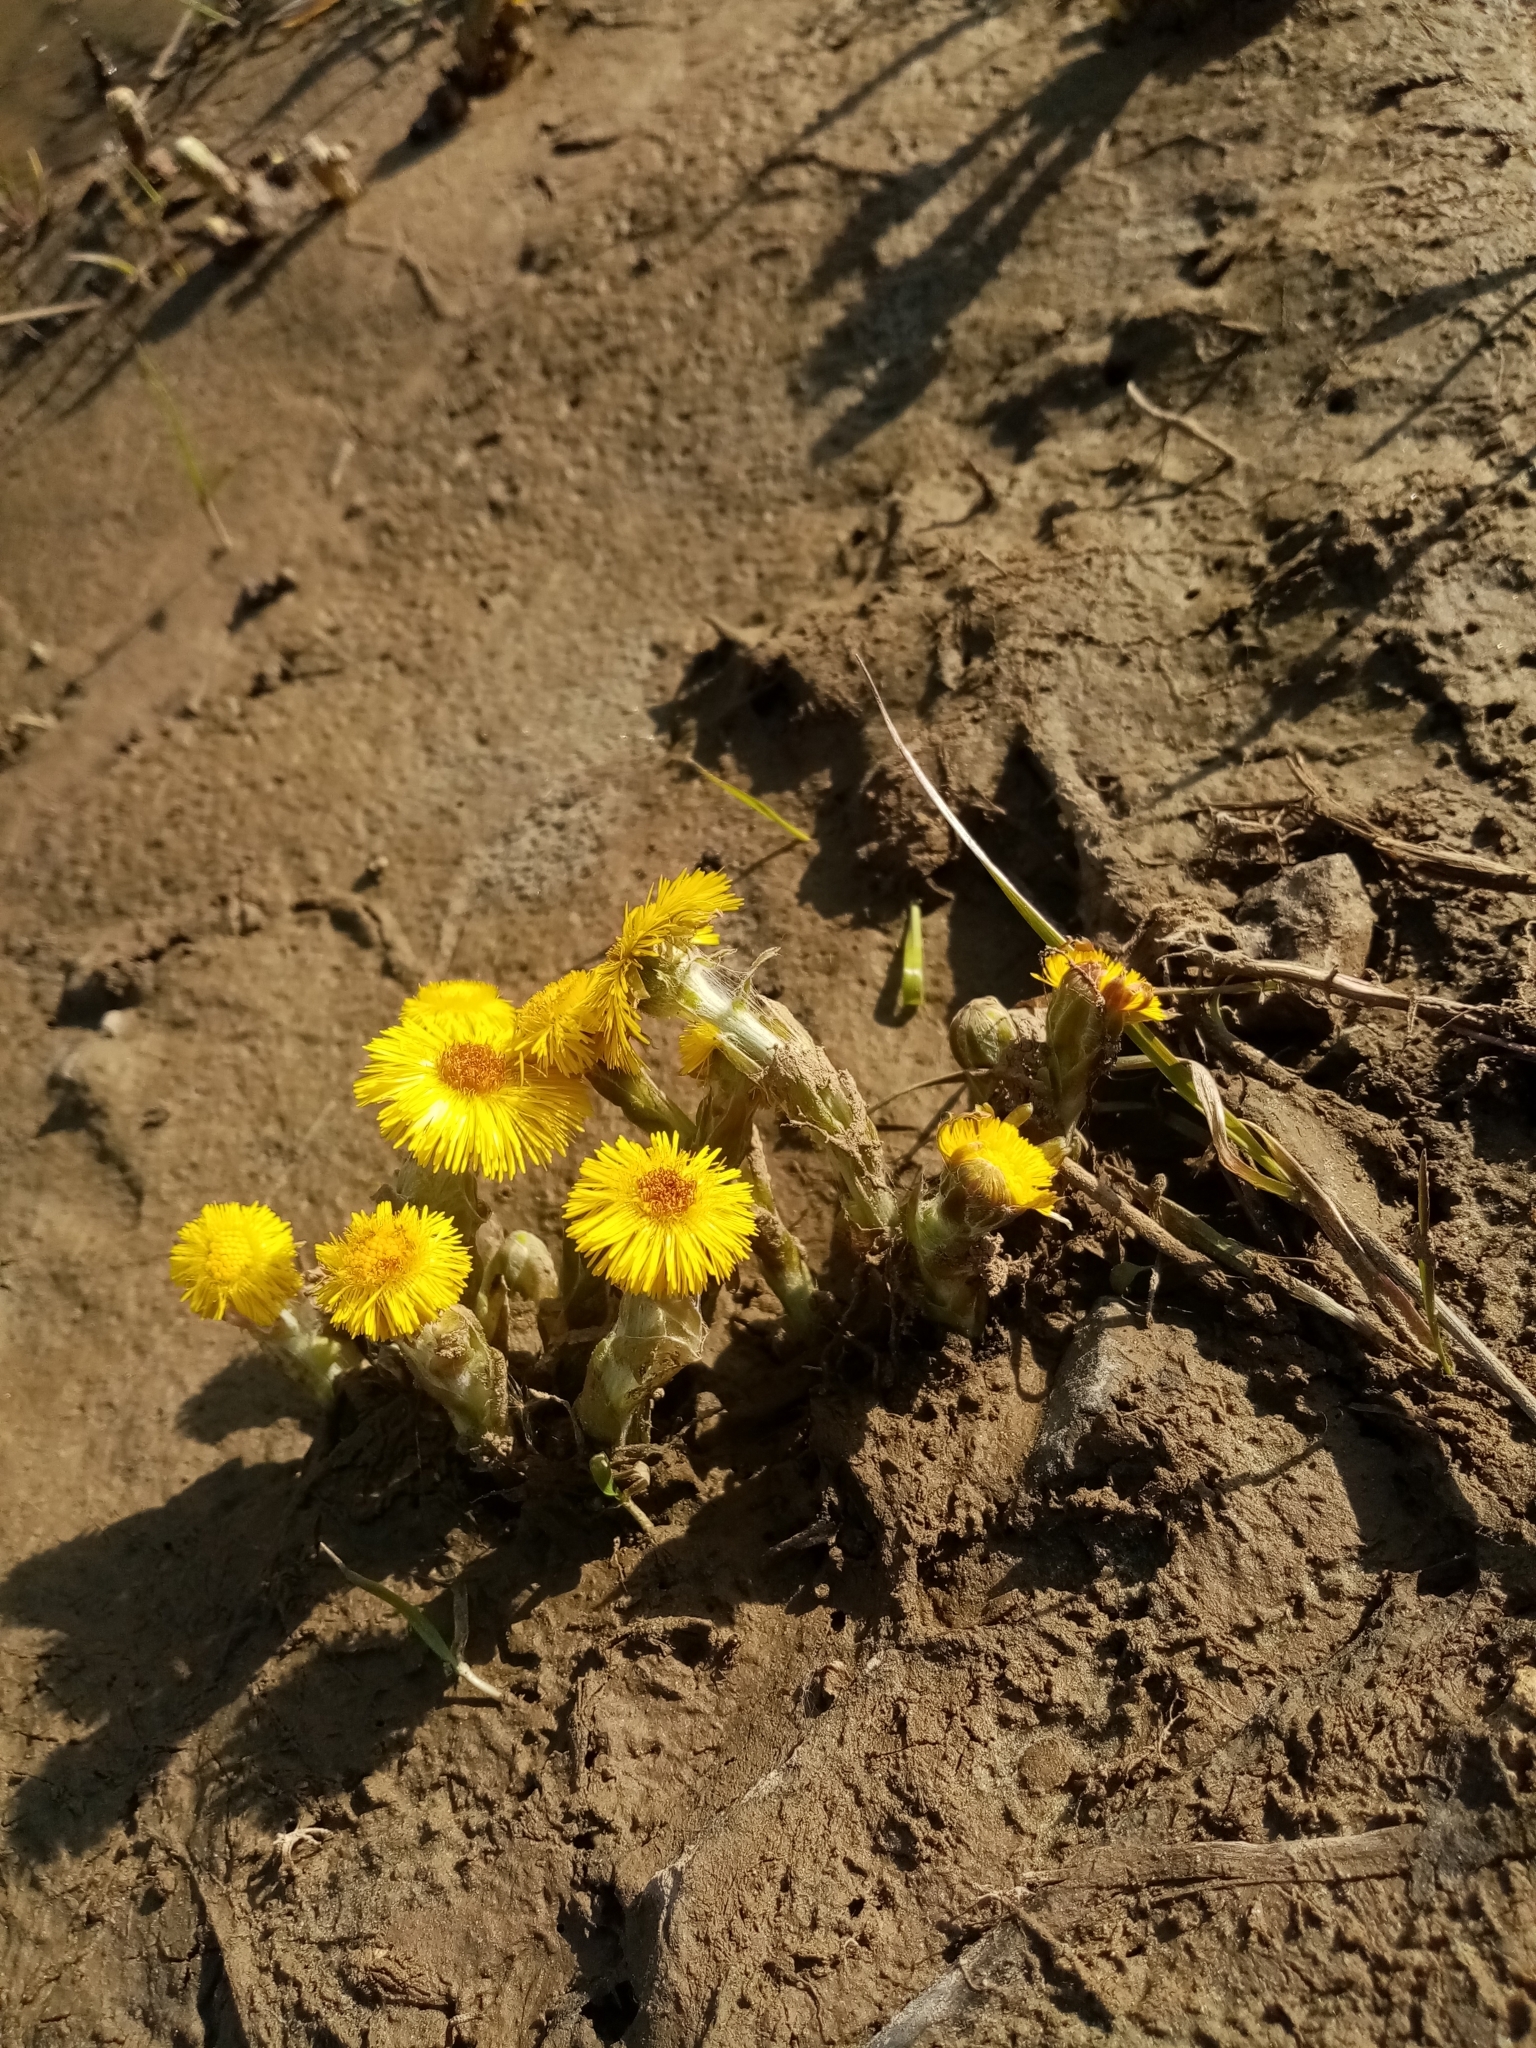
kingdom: Plantae
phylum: Tracheophyta
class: Magnoliopsida
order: Asterales
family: Asteraceae
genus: Tussilago
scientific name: Tussilago farfara
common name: Coltsfoot
